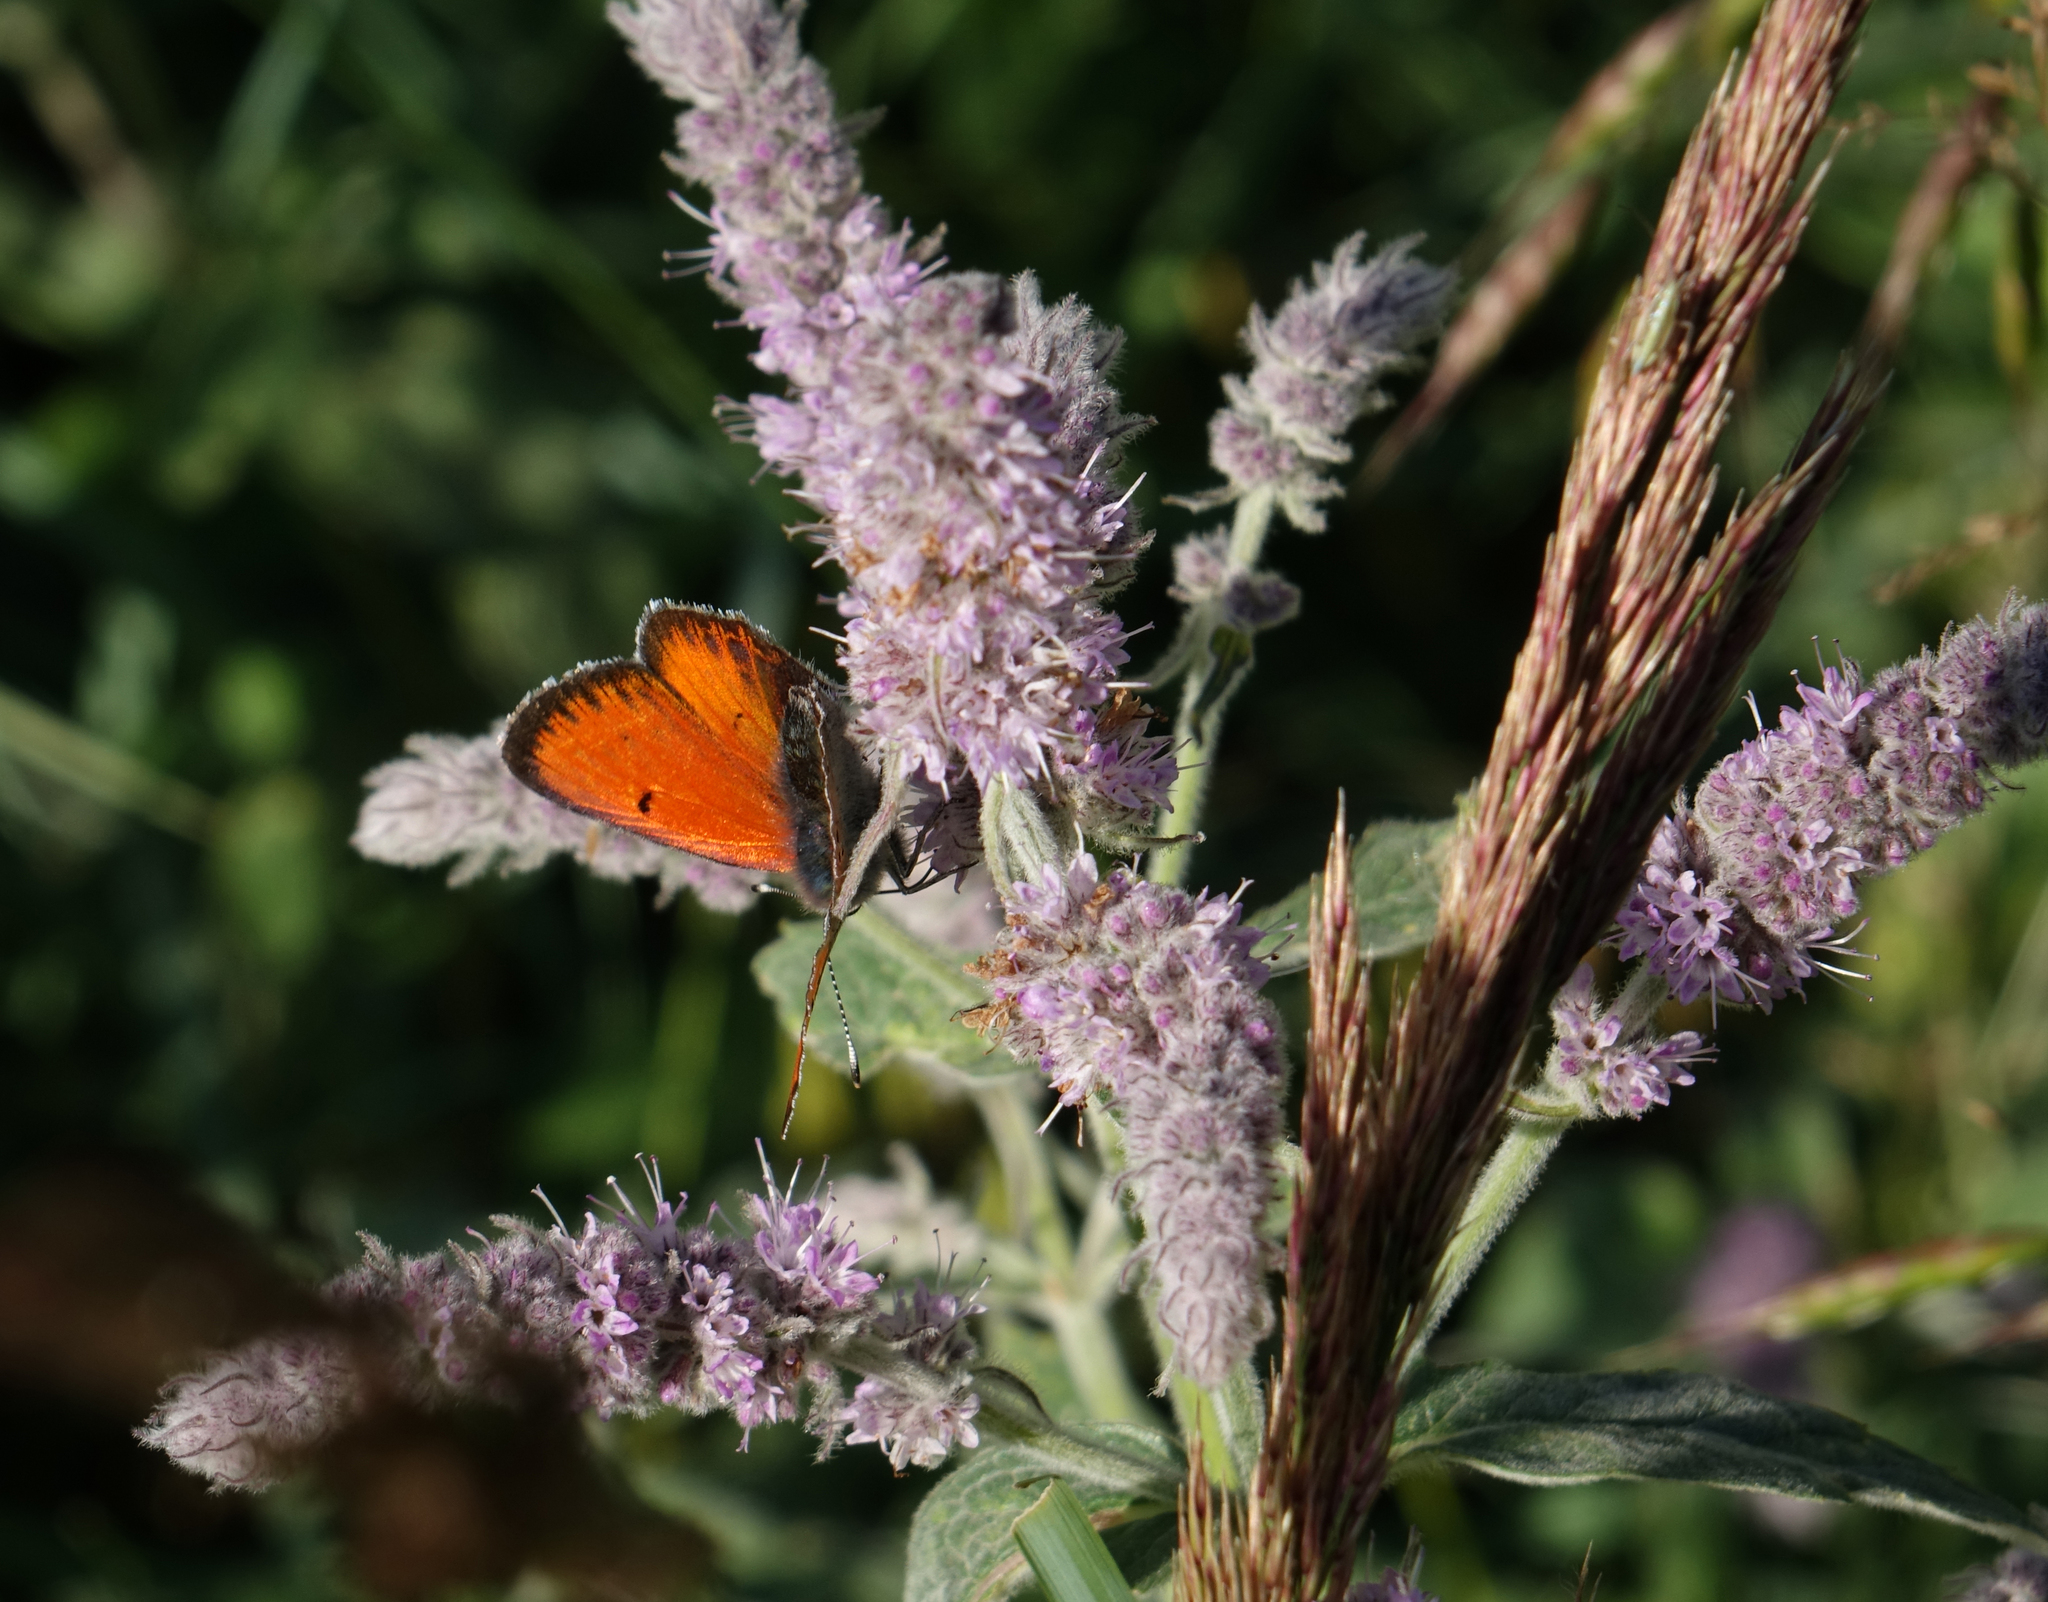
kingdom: Animalia
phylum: Arthropoda
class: Insecta
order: Lepidoptera
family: Lycaenidae
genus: Palaeochrysophanus
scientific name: Palaeochrysophanus candens
